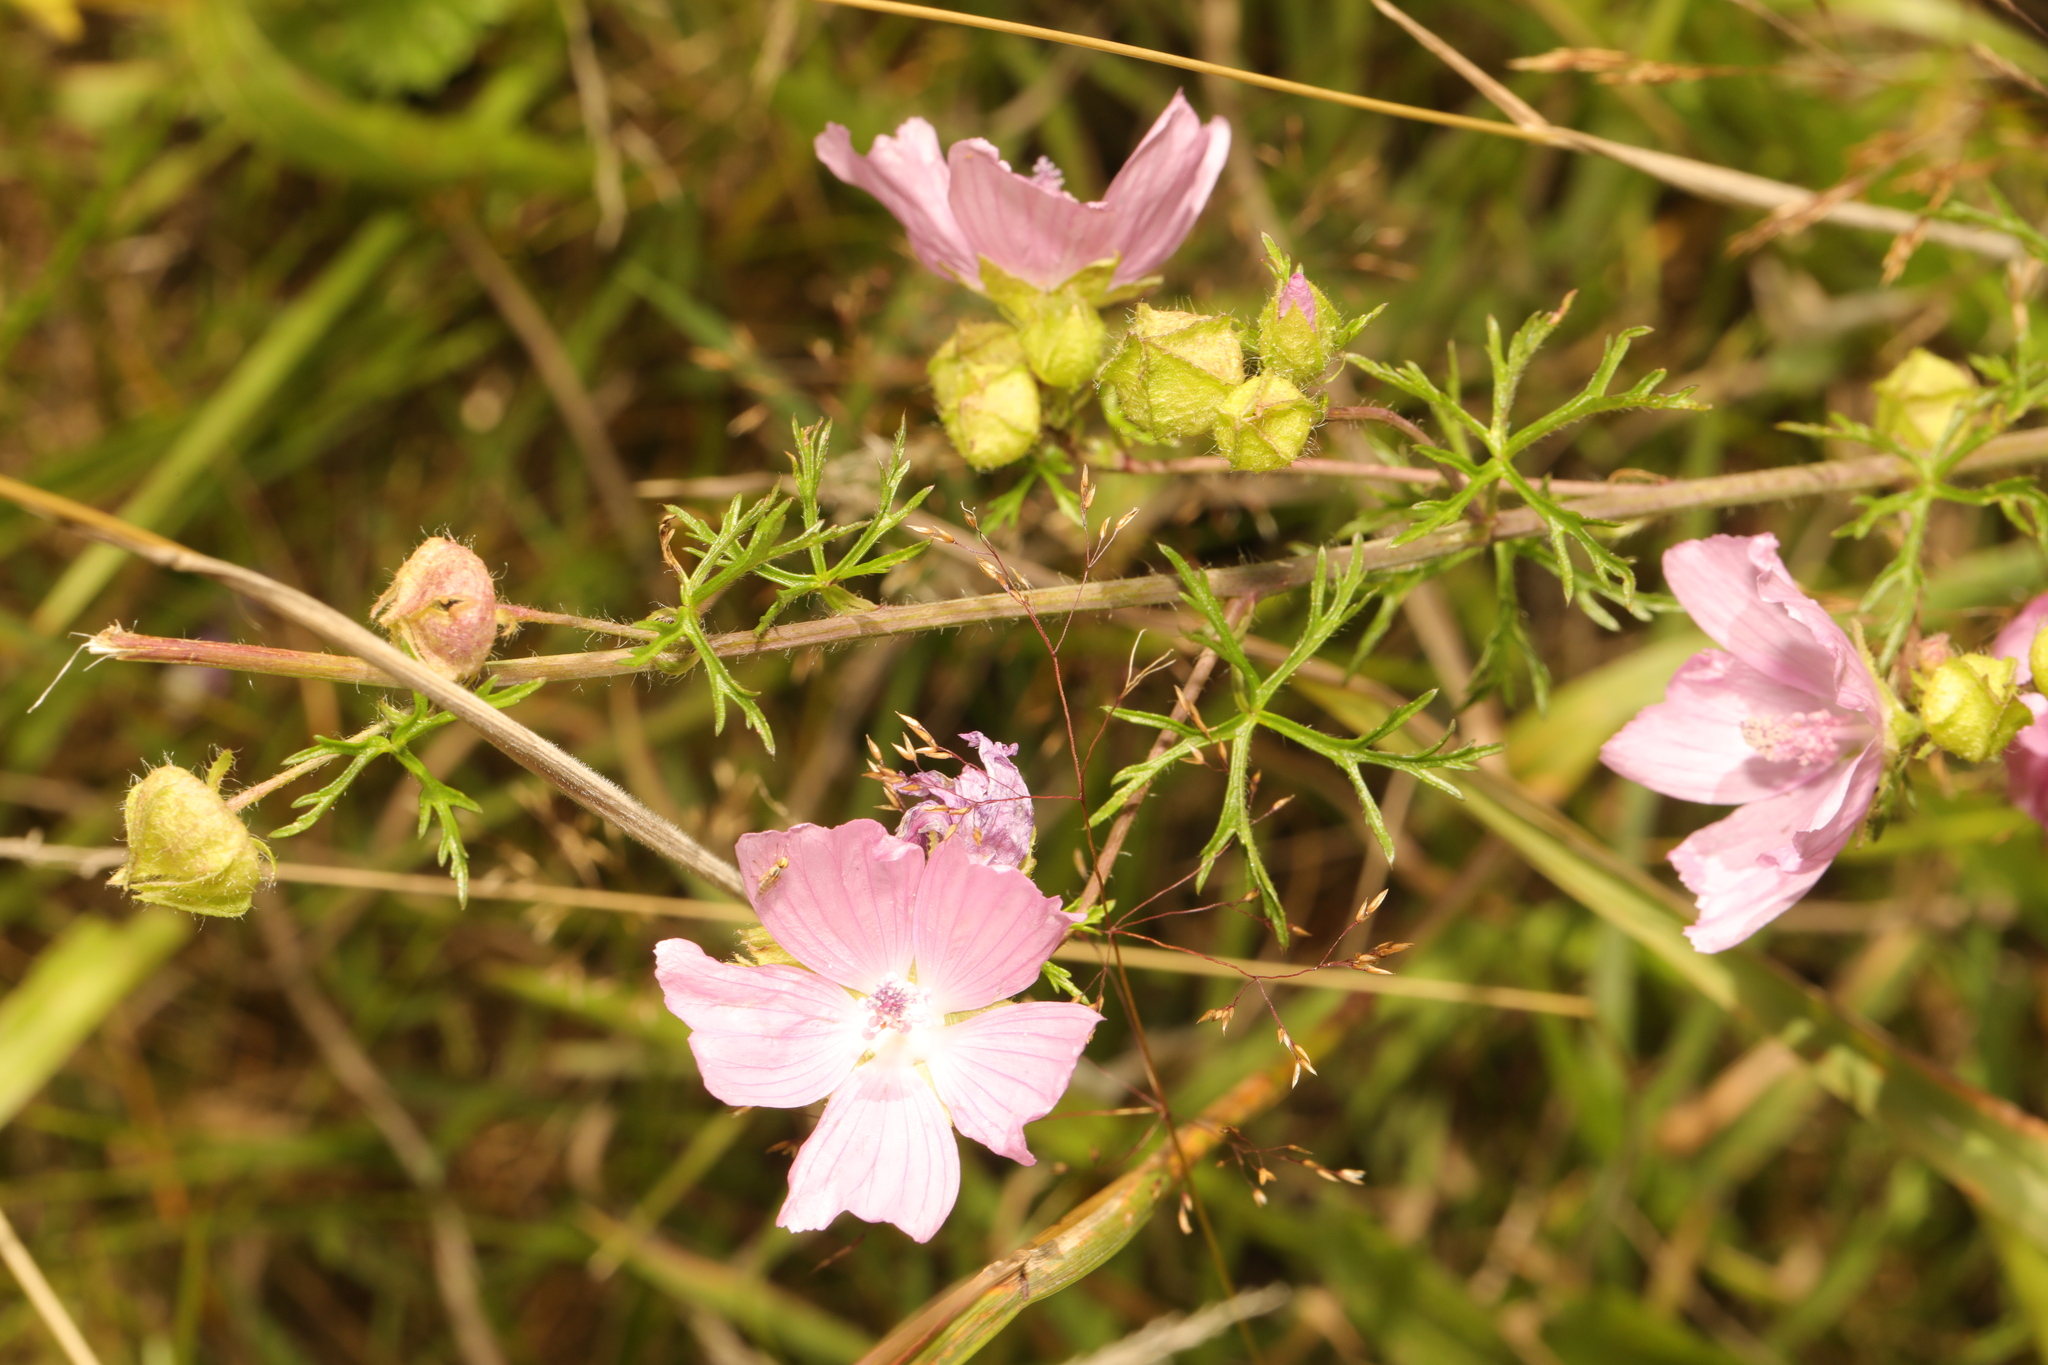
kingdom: Plantae
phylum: Tracheophyta
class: Magnoliopsida
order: Malvales
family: Malvaceae
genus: Malva
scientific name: Malva moschata
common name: Musk mallow
